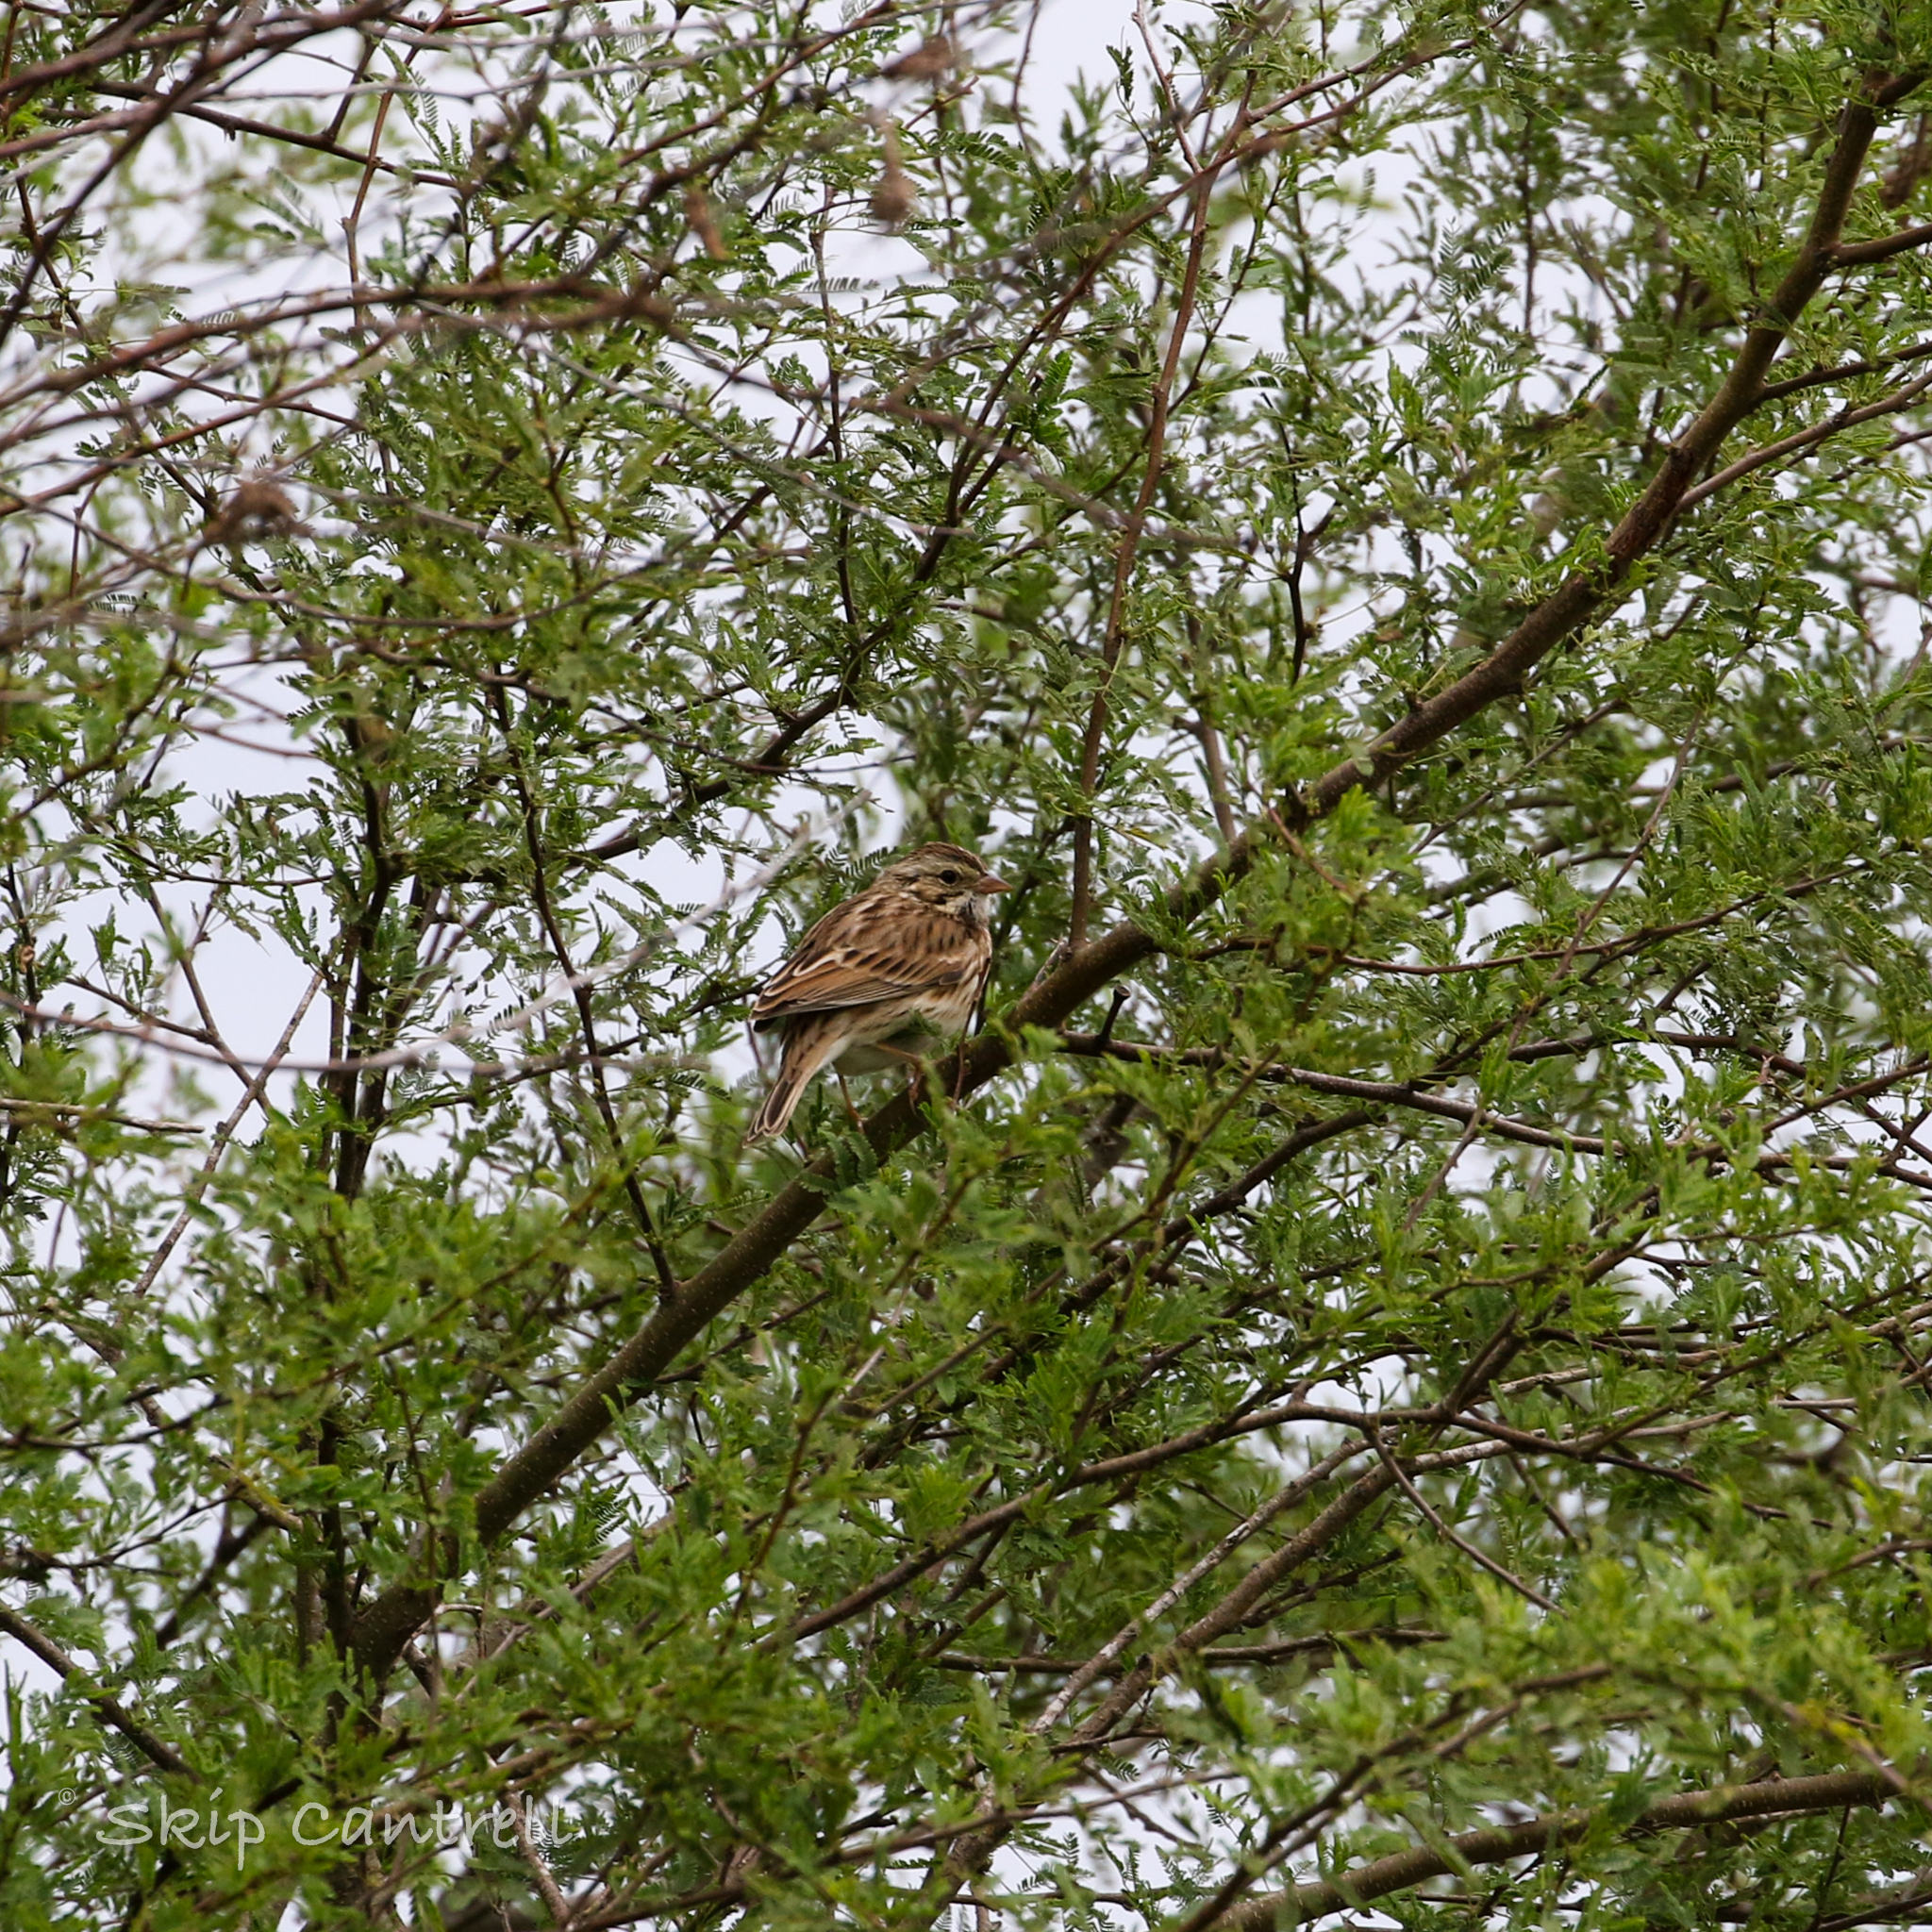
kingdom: Animalia
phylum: Chordata
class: Aves
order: Passeriformes
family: Passerellidae
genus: Passerculus
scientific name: Passerculus sandwichensis
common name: Savannah sparrow
